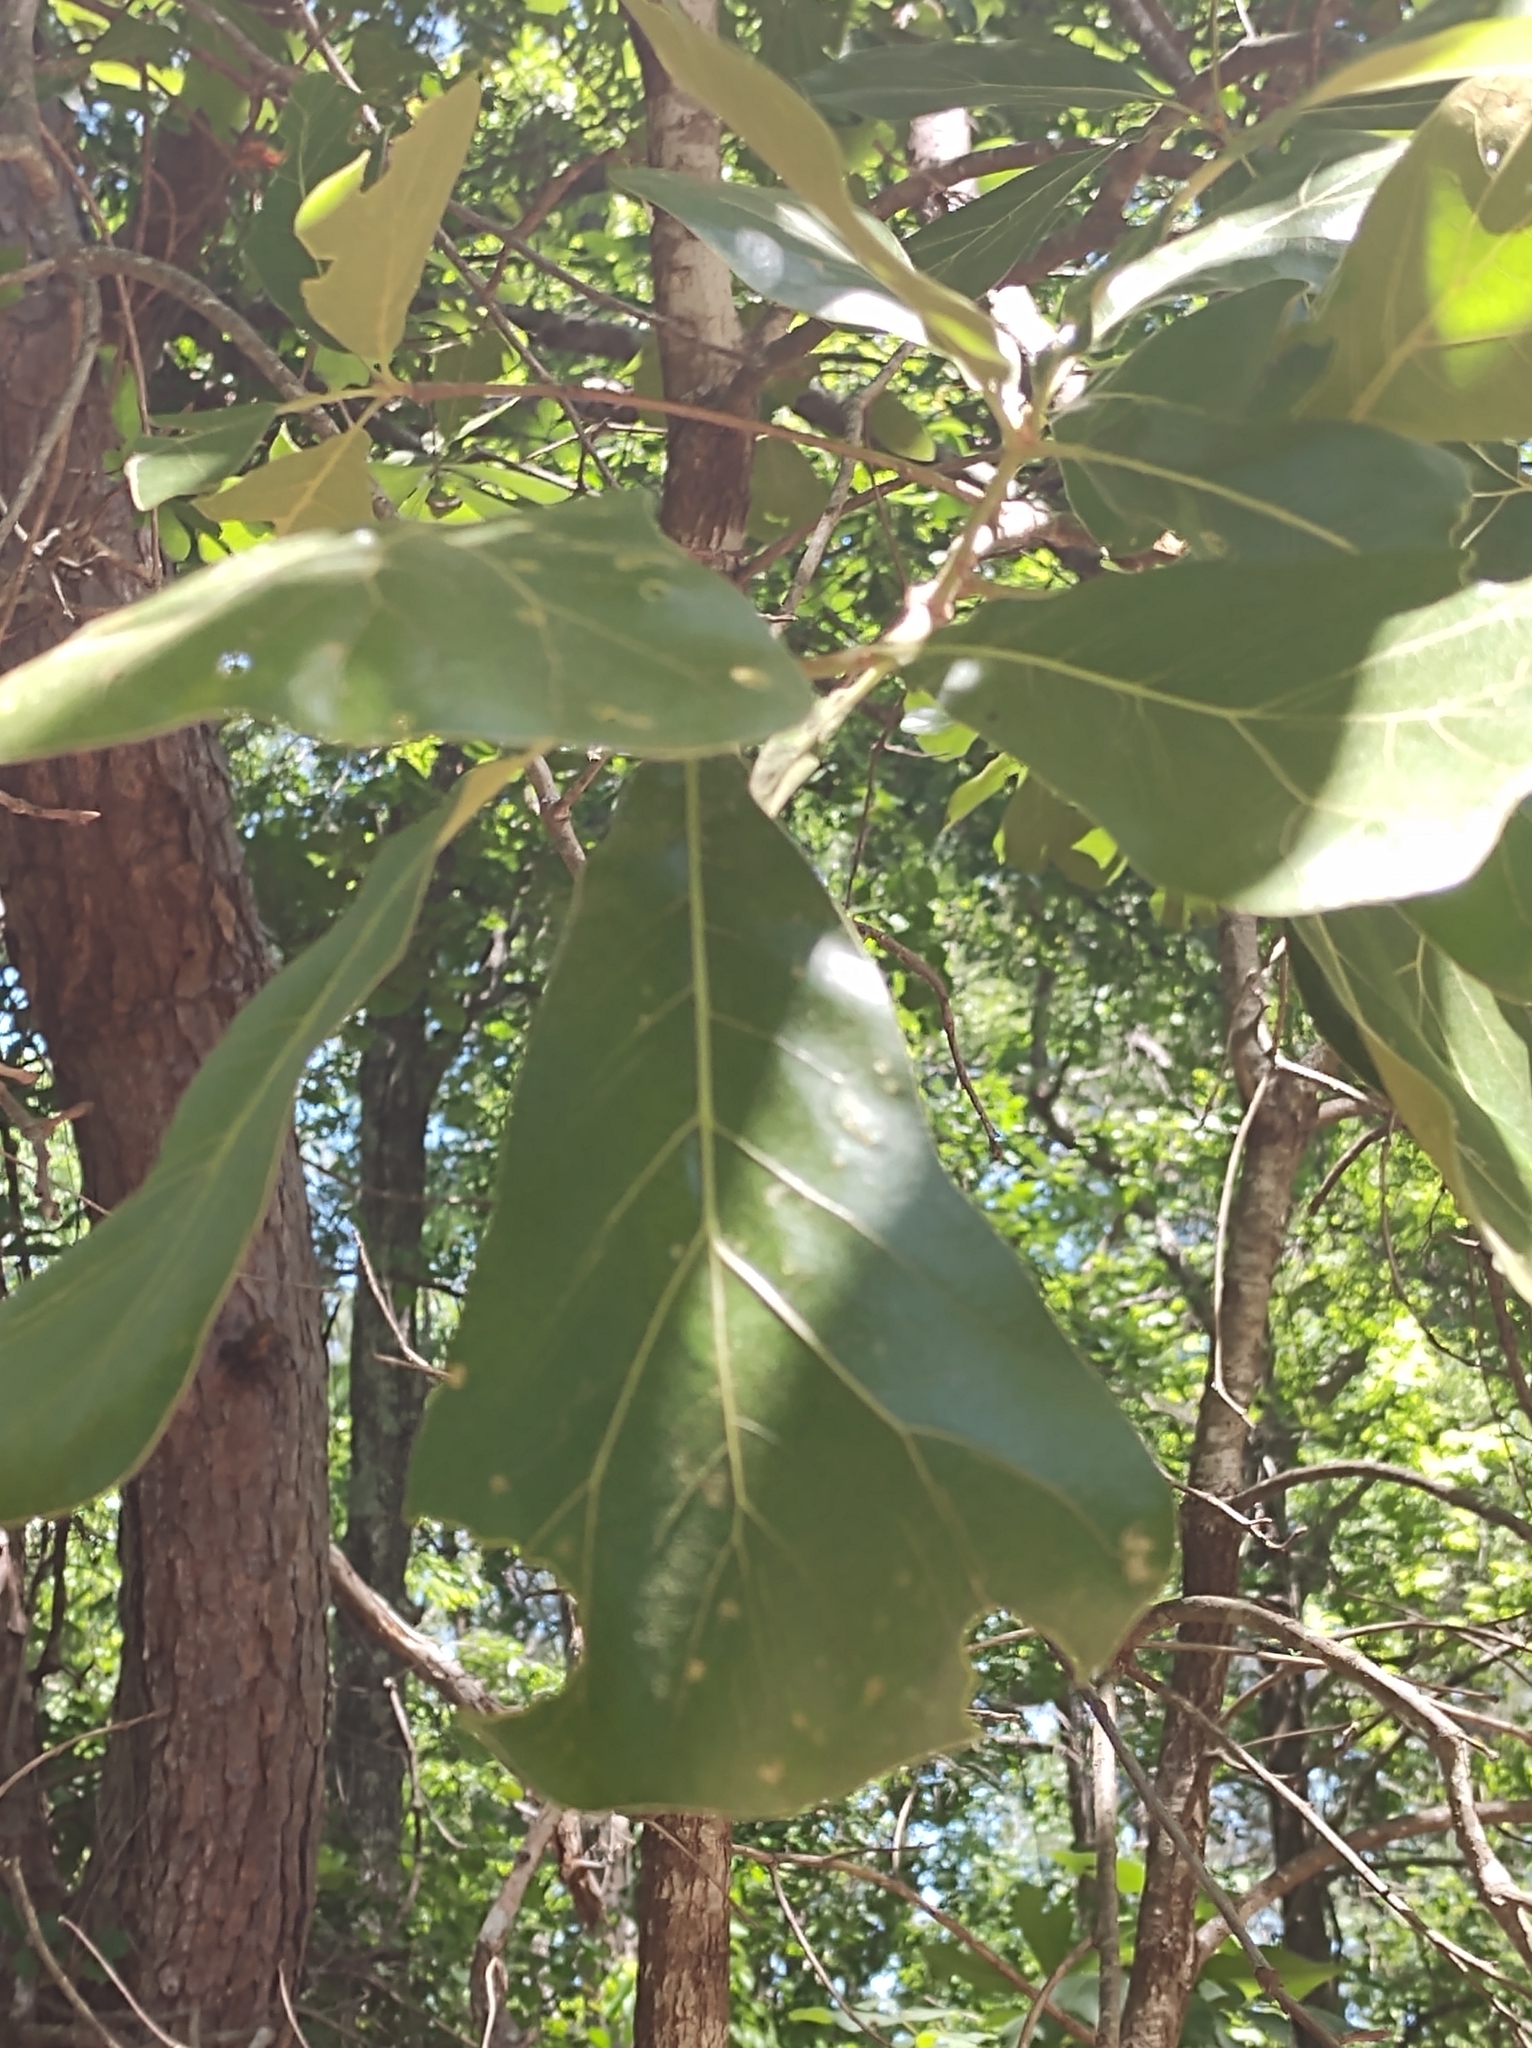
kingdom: Plantae
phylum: Tracheophyta
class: Magnoliopsida
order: Fagales
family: Fagaceae
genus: Quercus
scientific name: Quercus marilandica
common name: Blackjack oak
